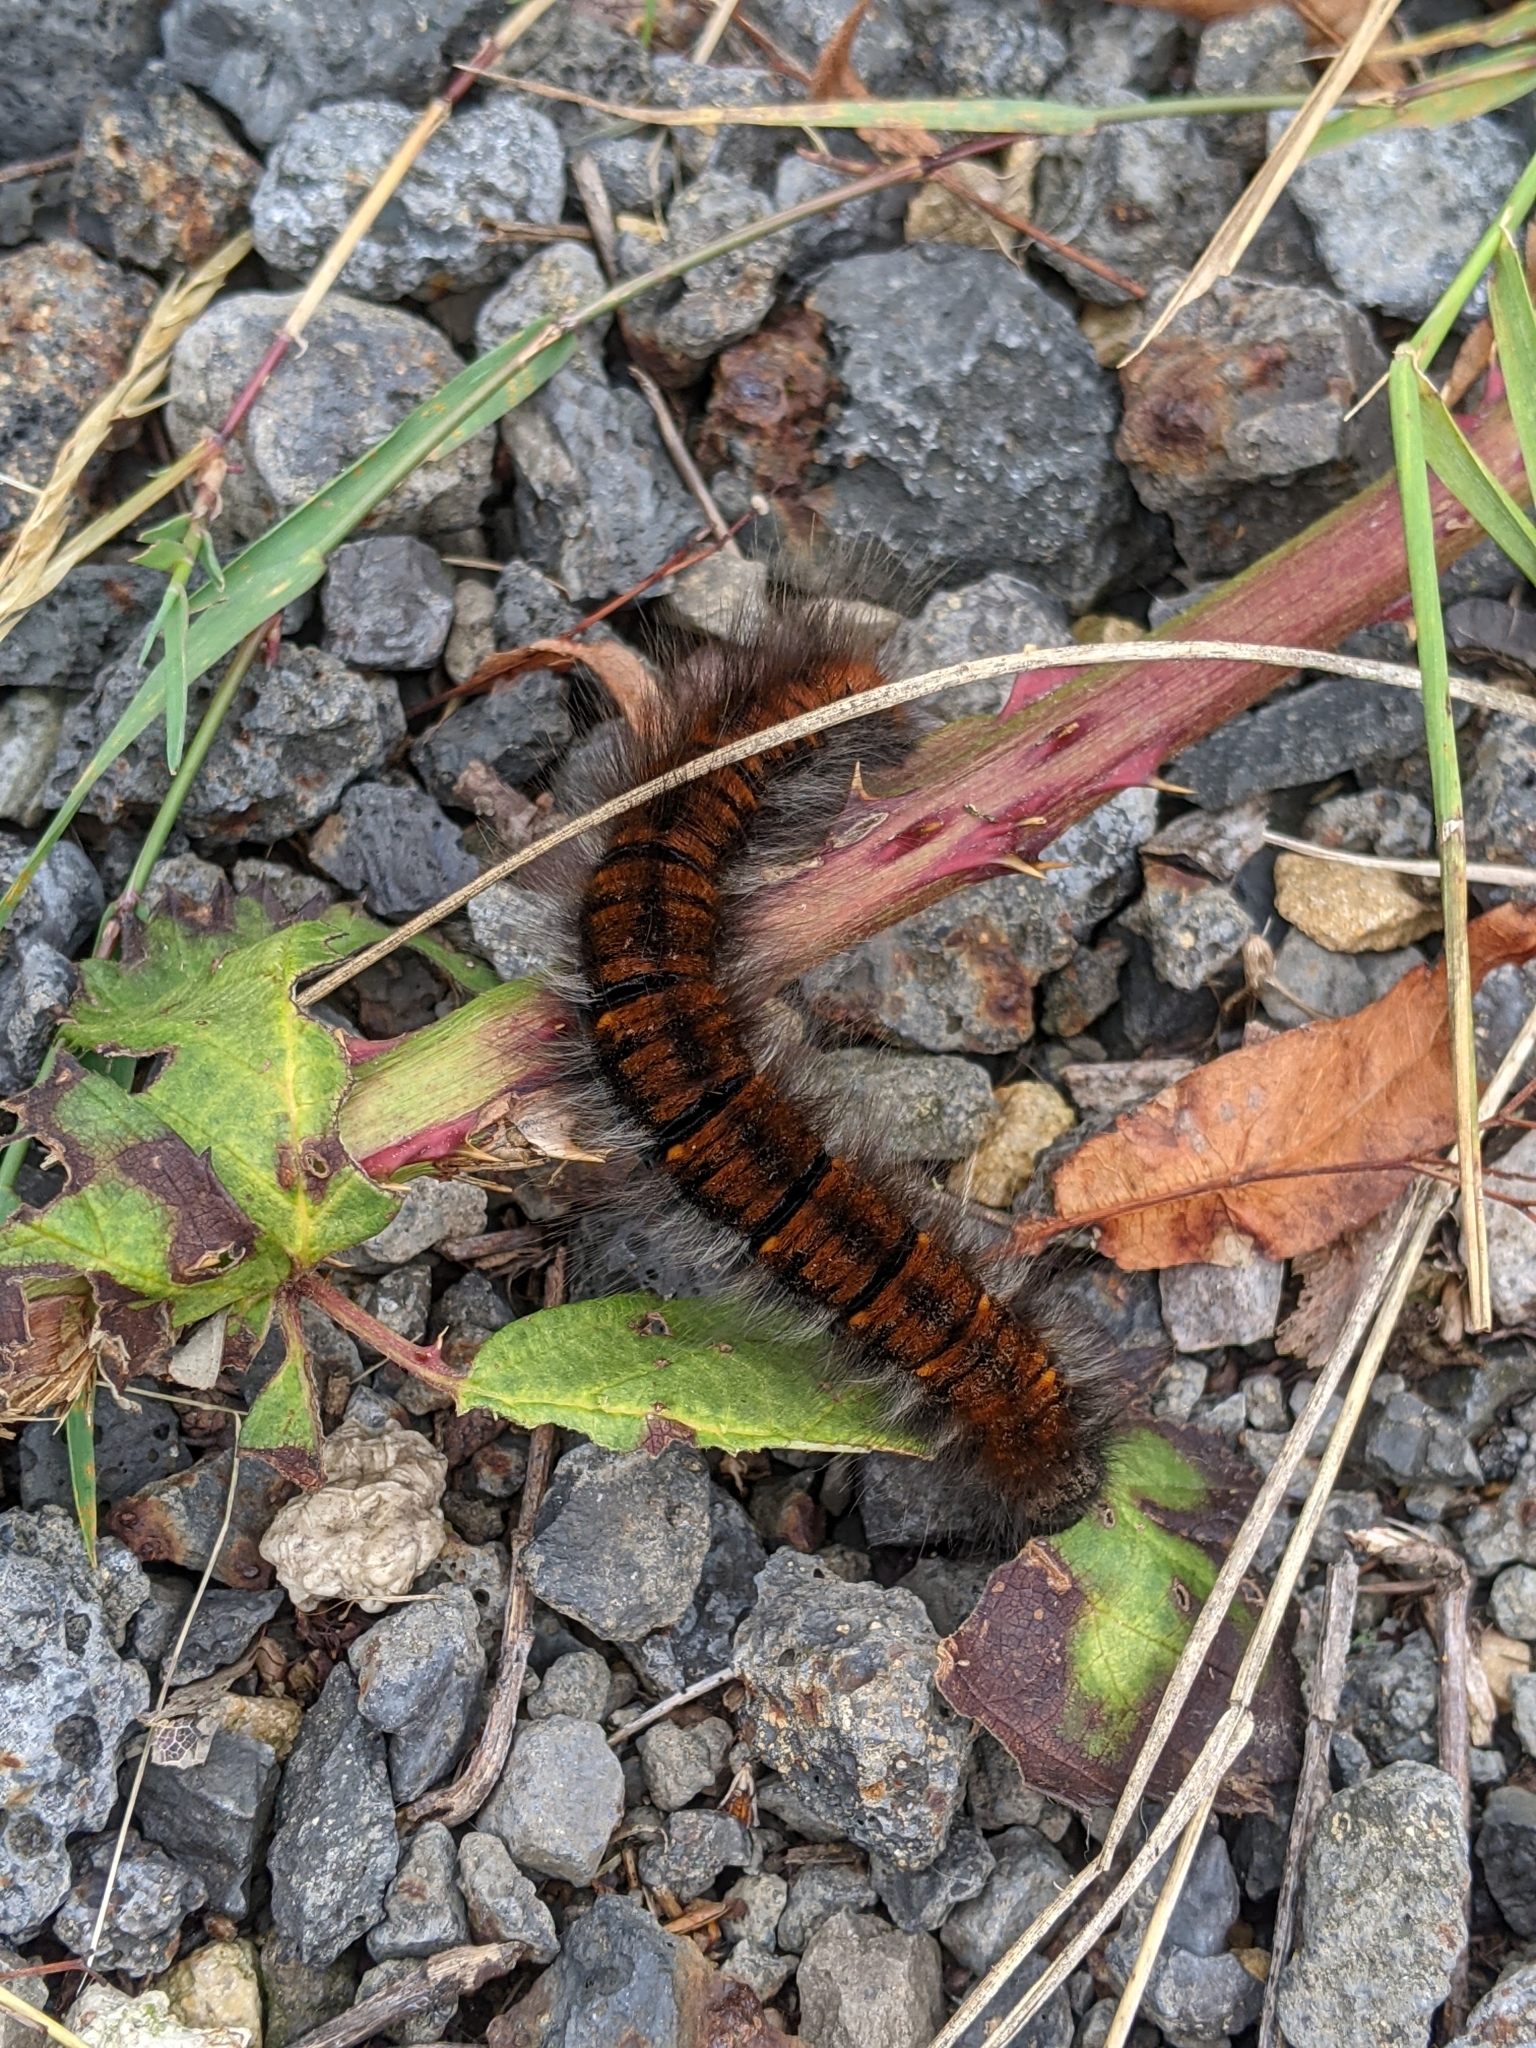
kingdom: Animalia
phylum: Arthropoda
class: Insecta
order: Lepidoptera
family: Lasiocampidae
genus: Macrothylacia
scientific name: Macrothylacia rubi
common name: Fox moth
